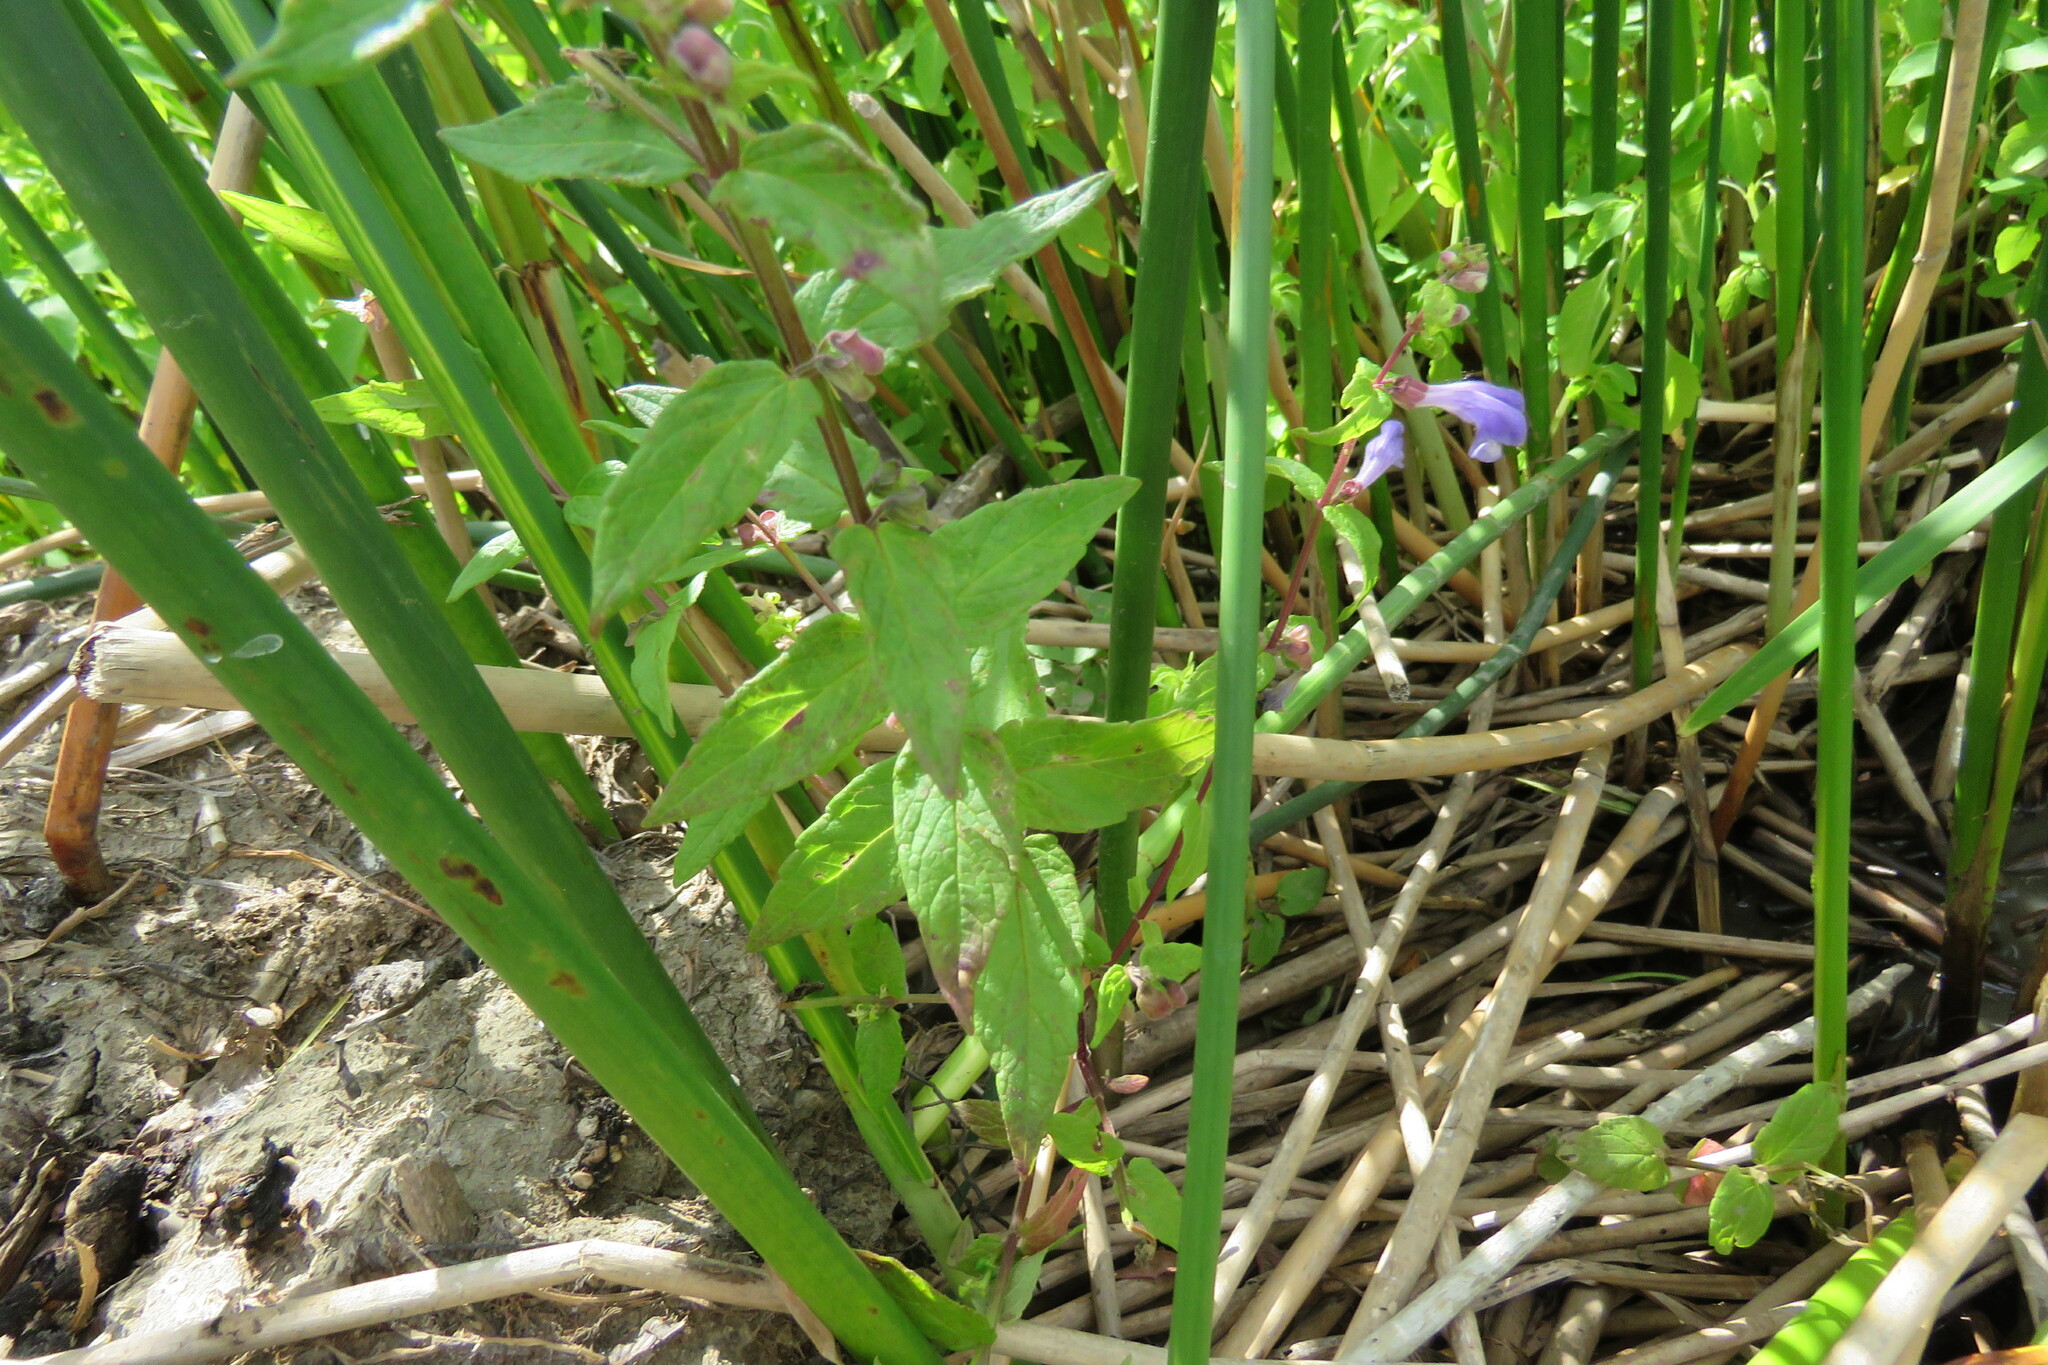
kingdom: Plantae
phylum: Tracheophyta
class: Magnoliopsida
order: Lamiales
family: Lamiaceae
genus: Scutellaria
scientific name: Scutellaria galericulata
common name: Skullcap
